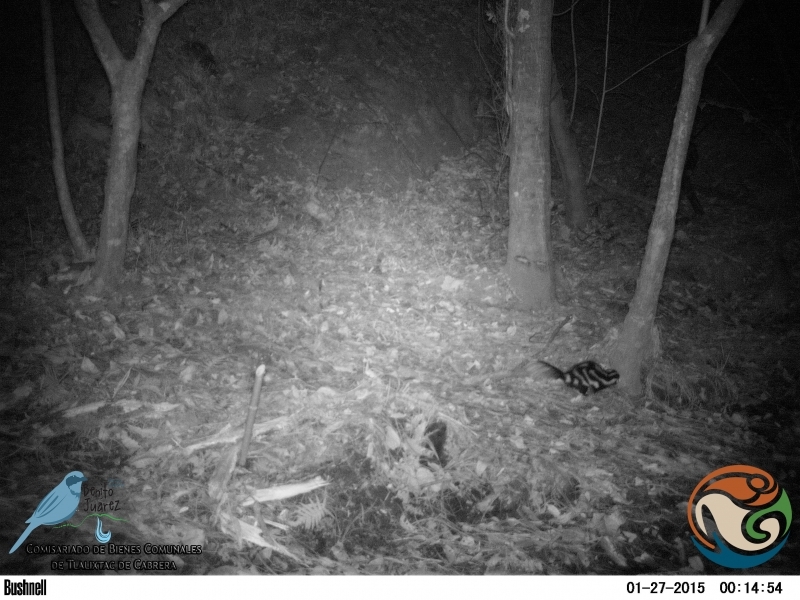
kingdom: Animalia
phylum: Chordata
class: Mammalia
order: Carnivora
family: Mephitidae
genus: Spilogale
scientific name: Spilogale angustifrons
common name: Southern spotted skunk
